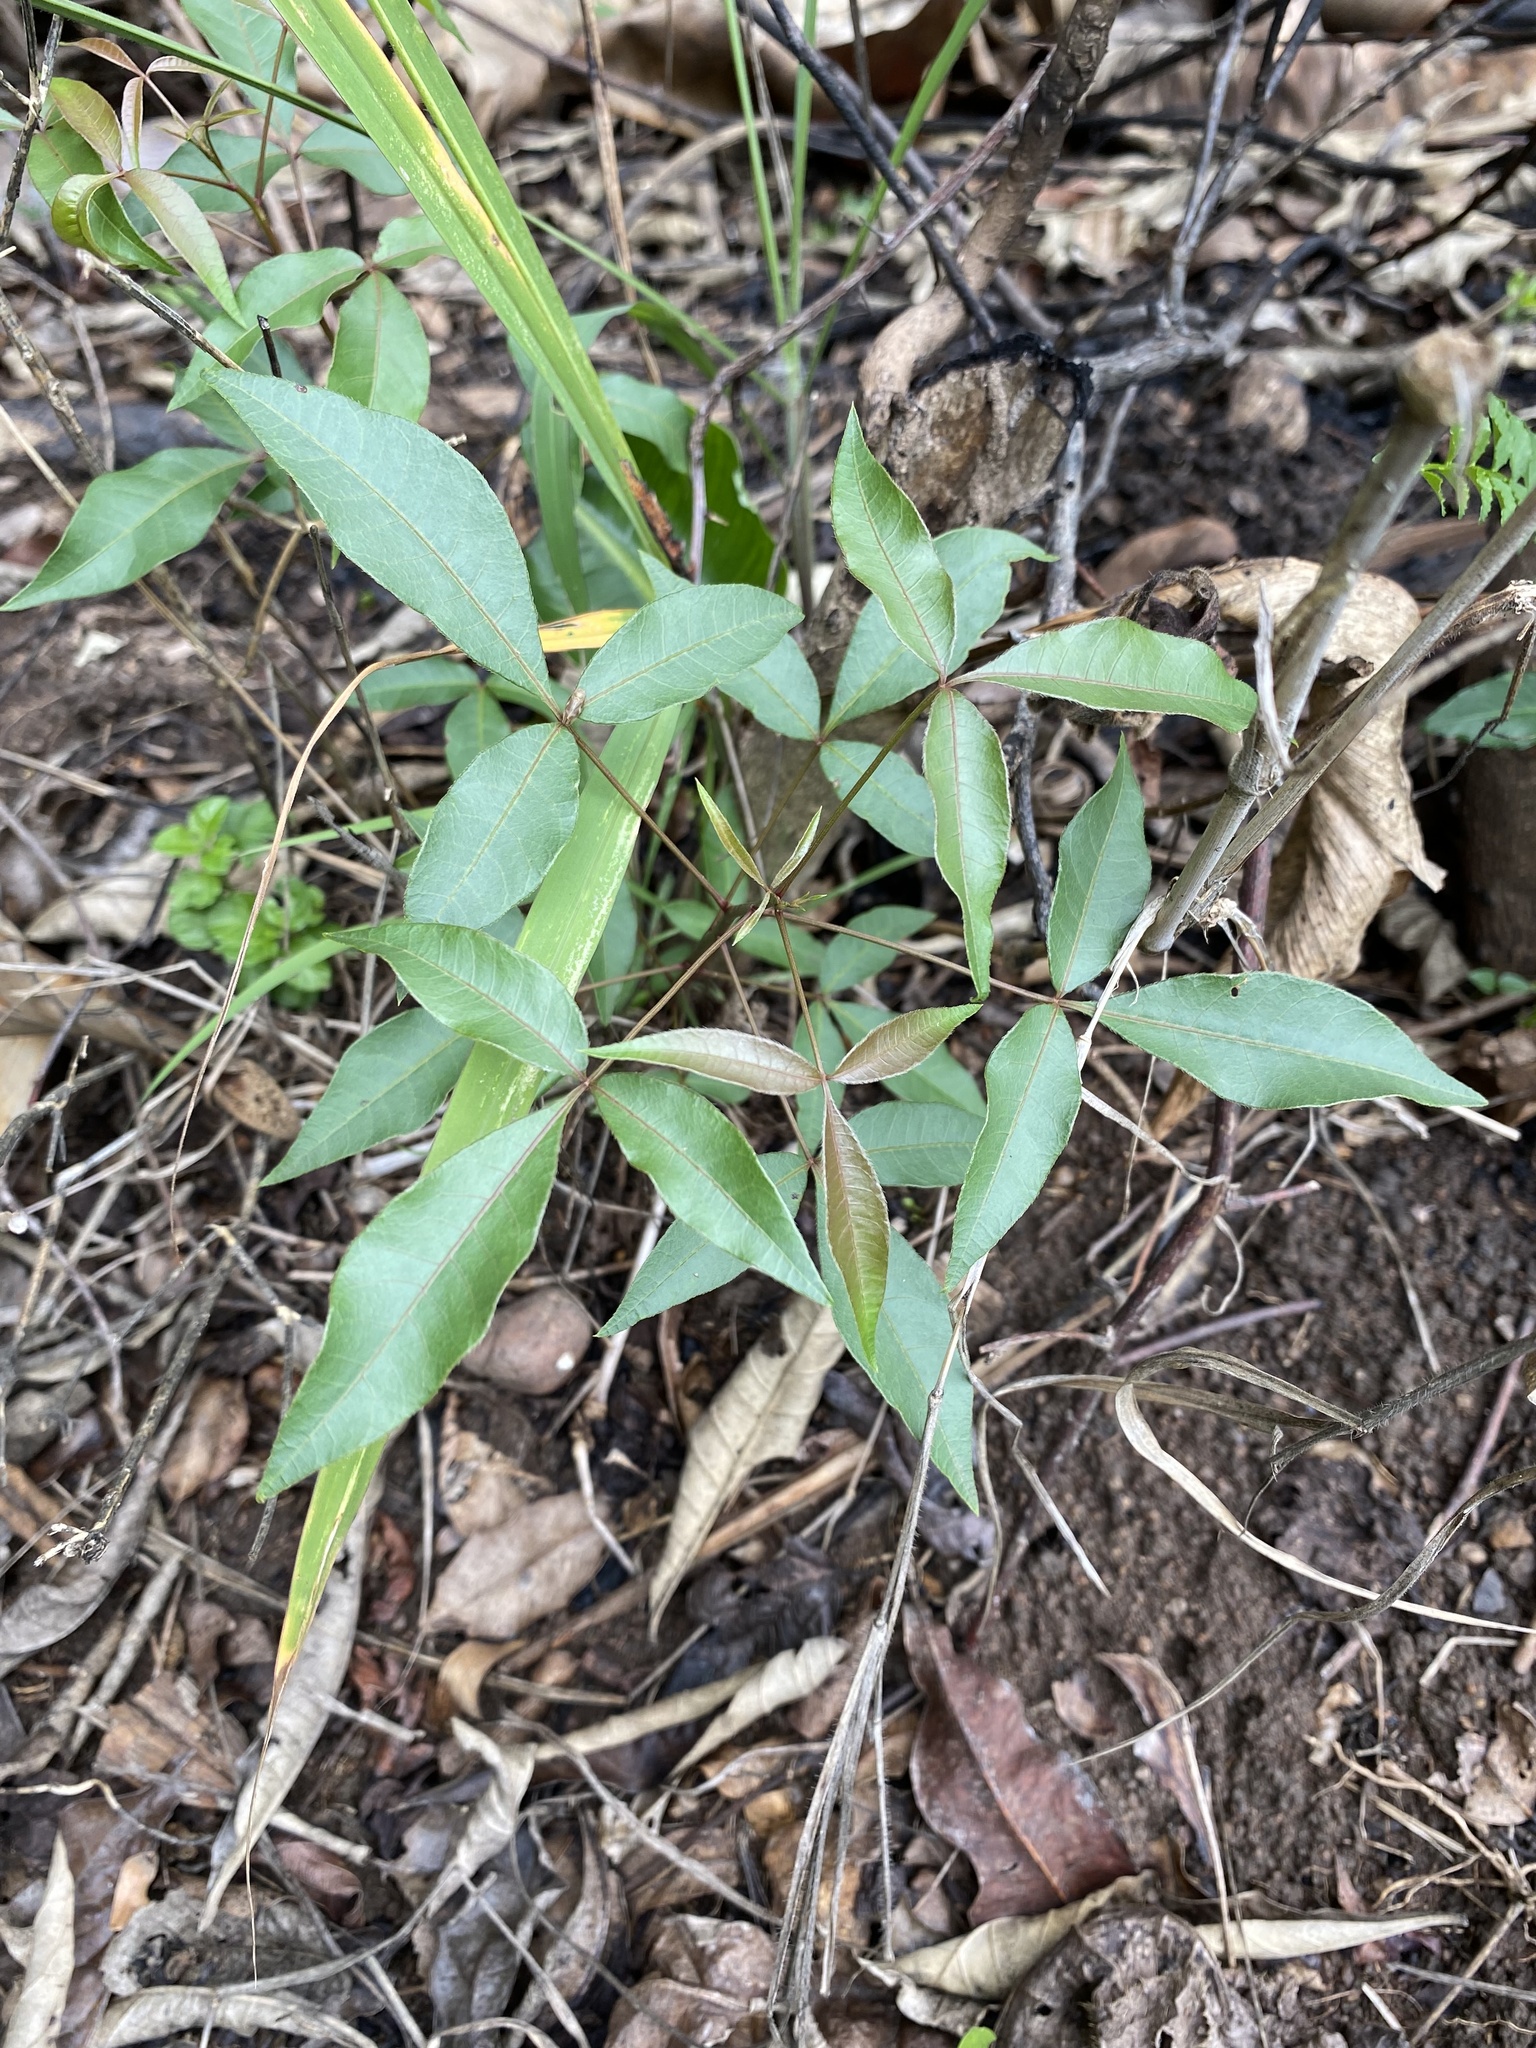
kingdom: Plantae
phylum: Tracheophyta
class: Magnoliopsida
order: Sapindales
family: Anacardiaceae
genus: Searsia
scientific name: Searsia chirindensis
